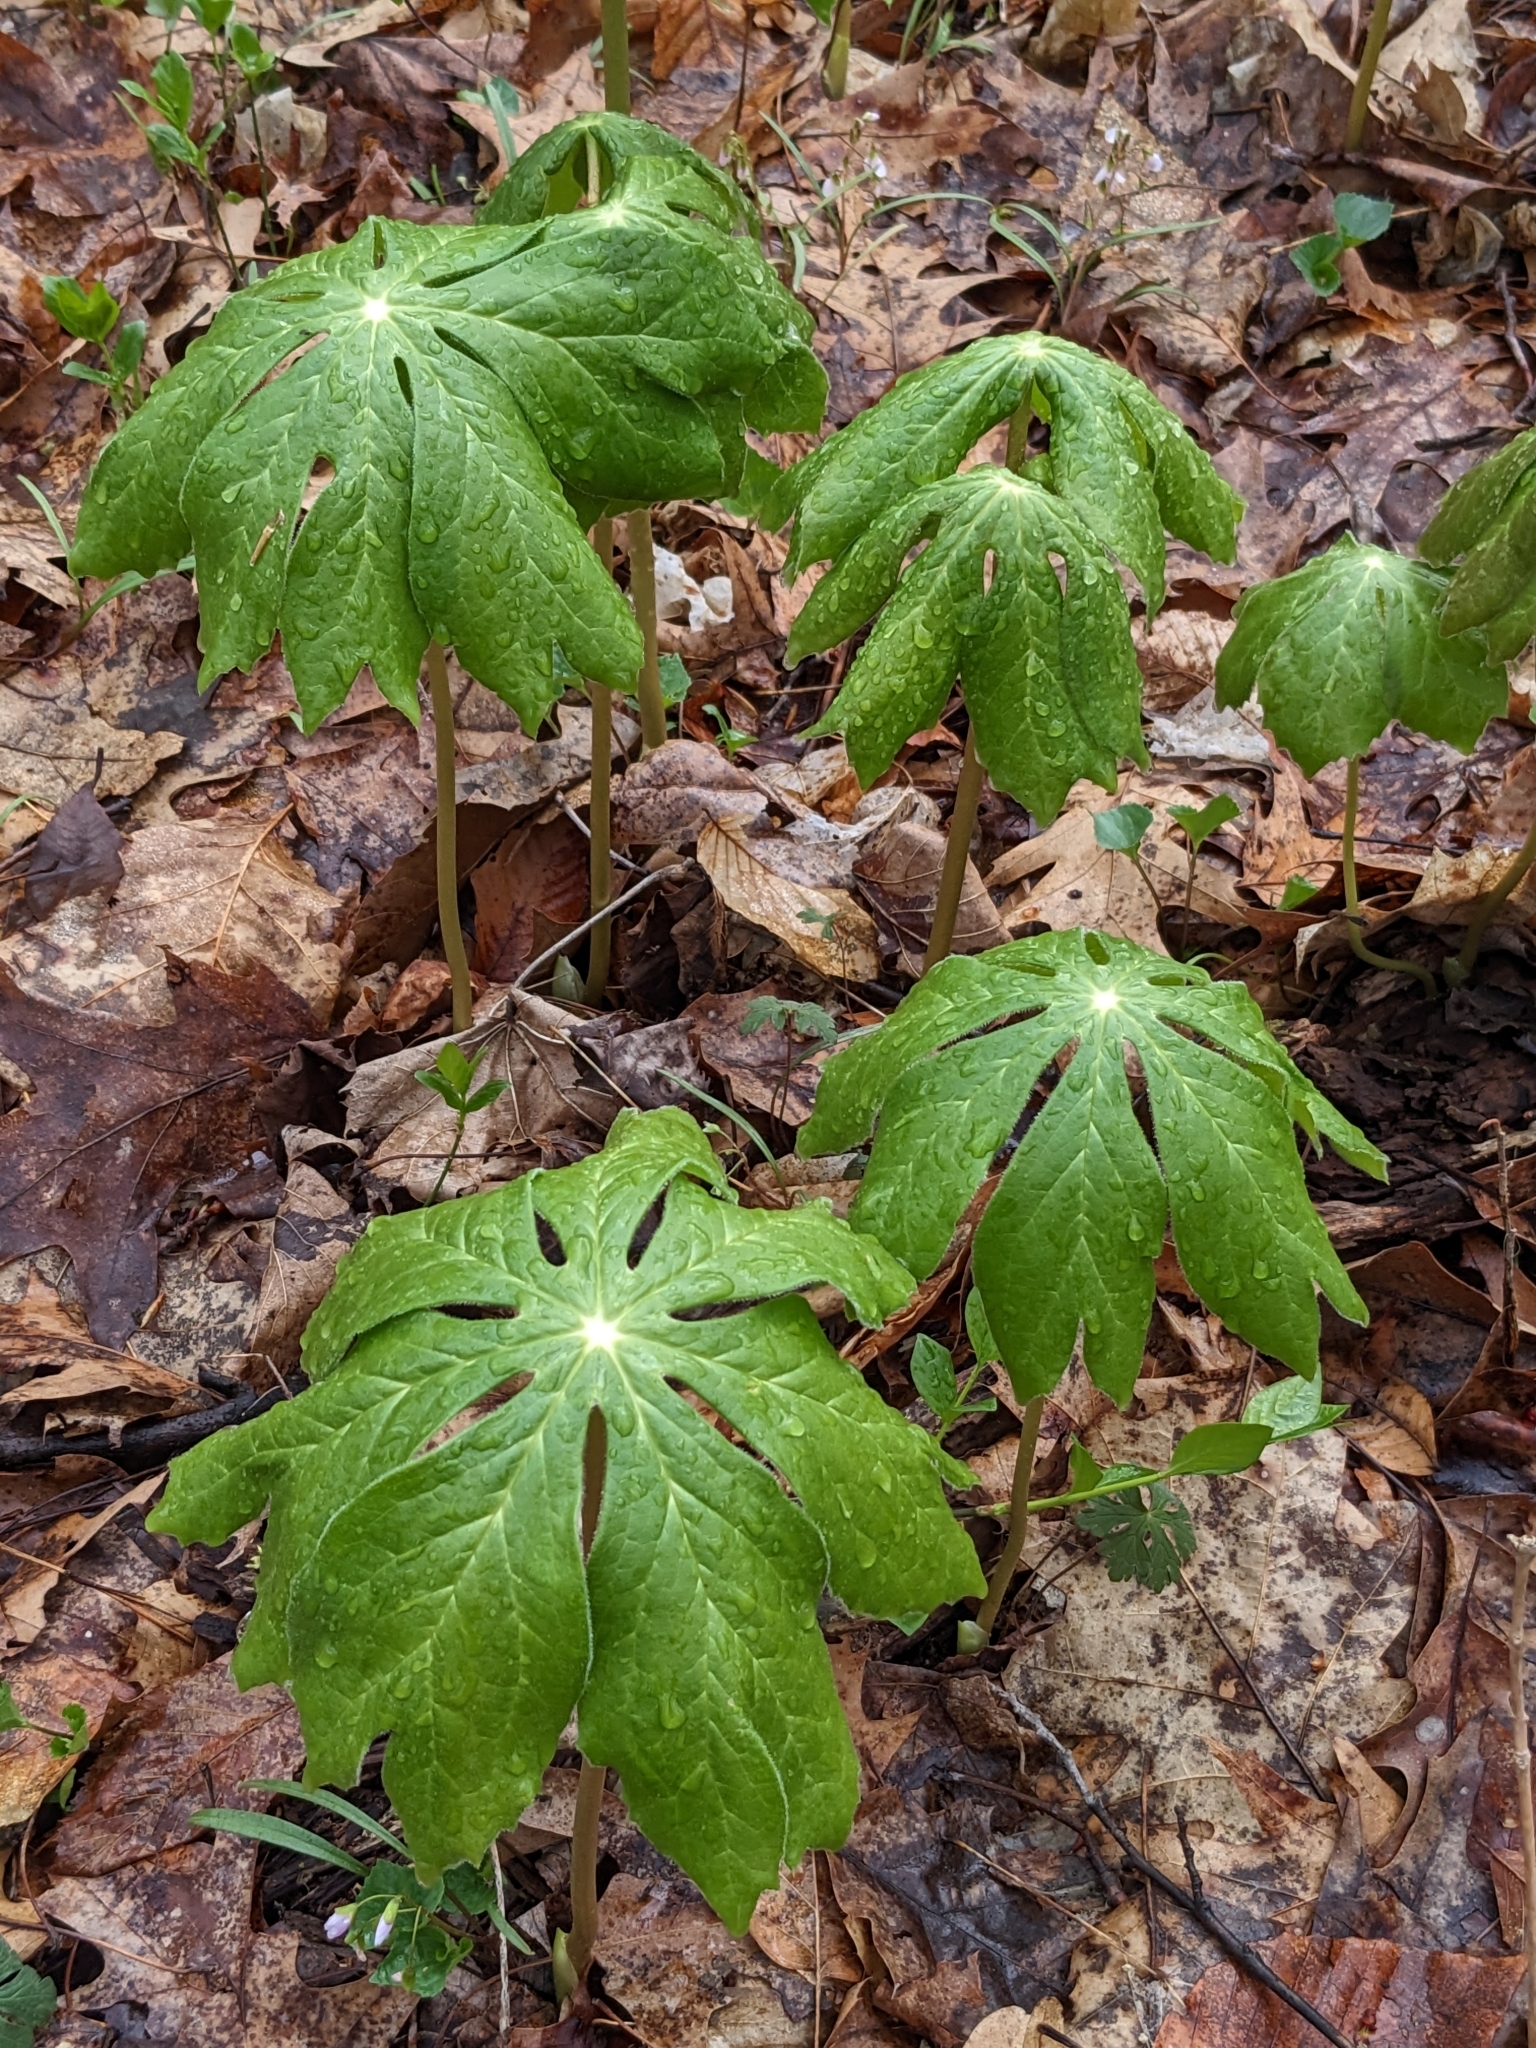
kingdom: Plantae
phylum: Tracheophyta
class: Magnoliopsida
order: Ranunculales
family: Berberidaceae
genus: Podophyllum
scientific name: Podophyllum peltatum
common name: Wild mandrake
